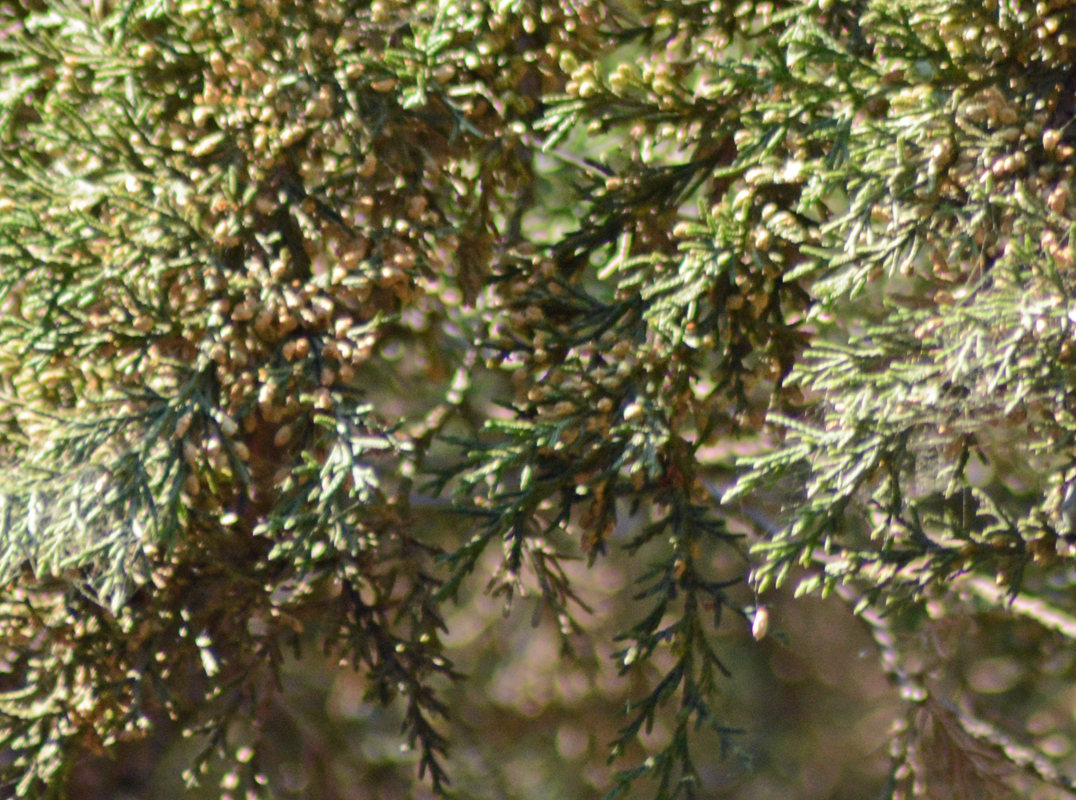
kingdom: Plantae
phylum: Tracheophyta
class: Pinopsida
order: Pinales
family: Cupressaceae
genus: Cupressus
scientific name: Cupressus lusitanica
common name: Mexican cypress
